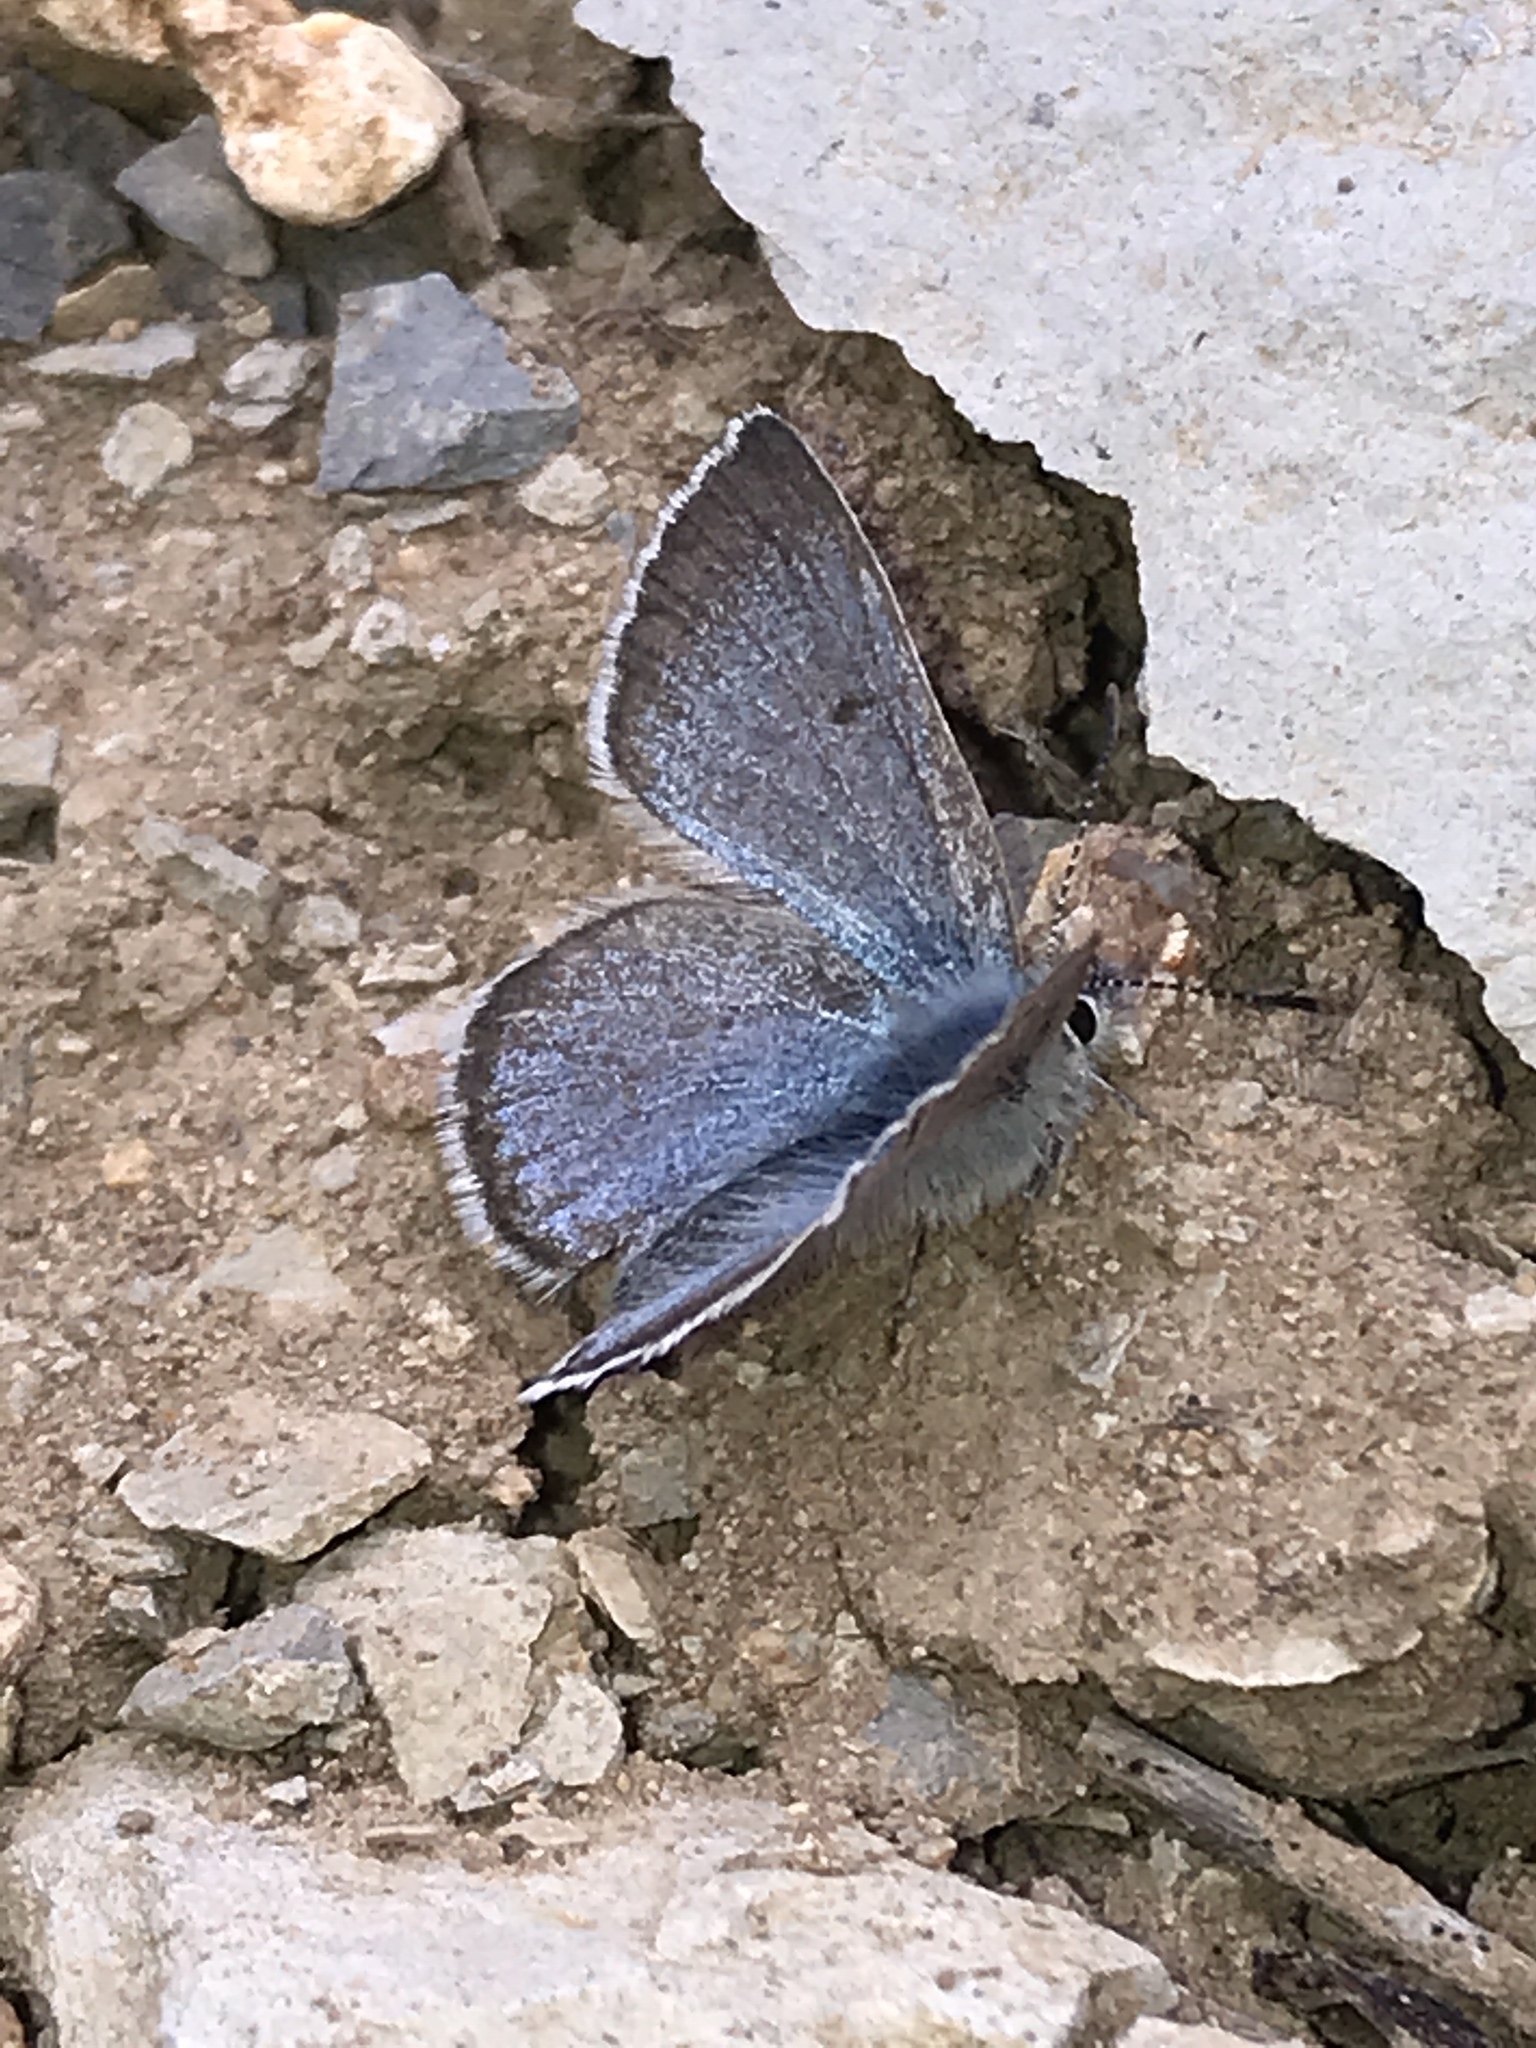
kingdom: Animalia
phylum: Arthropoda
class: Insecta
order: Lepidoptera
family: Lycaenidae
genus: Icaricia
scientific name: Icaricia saepiolus
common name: Greenish blue
